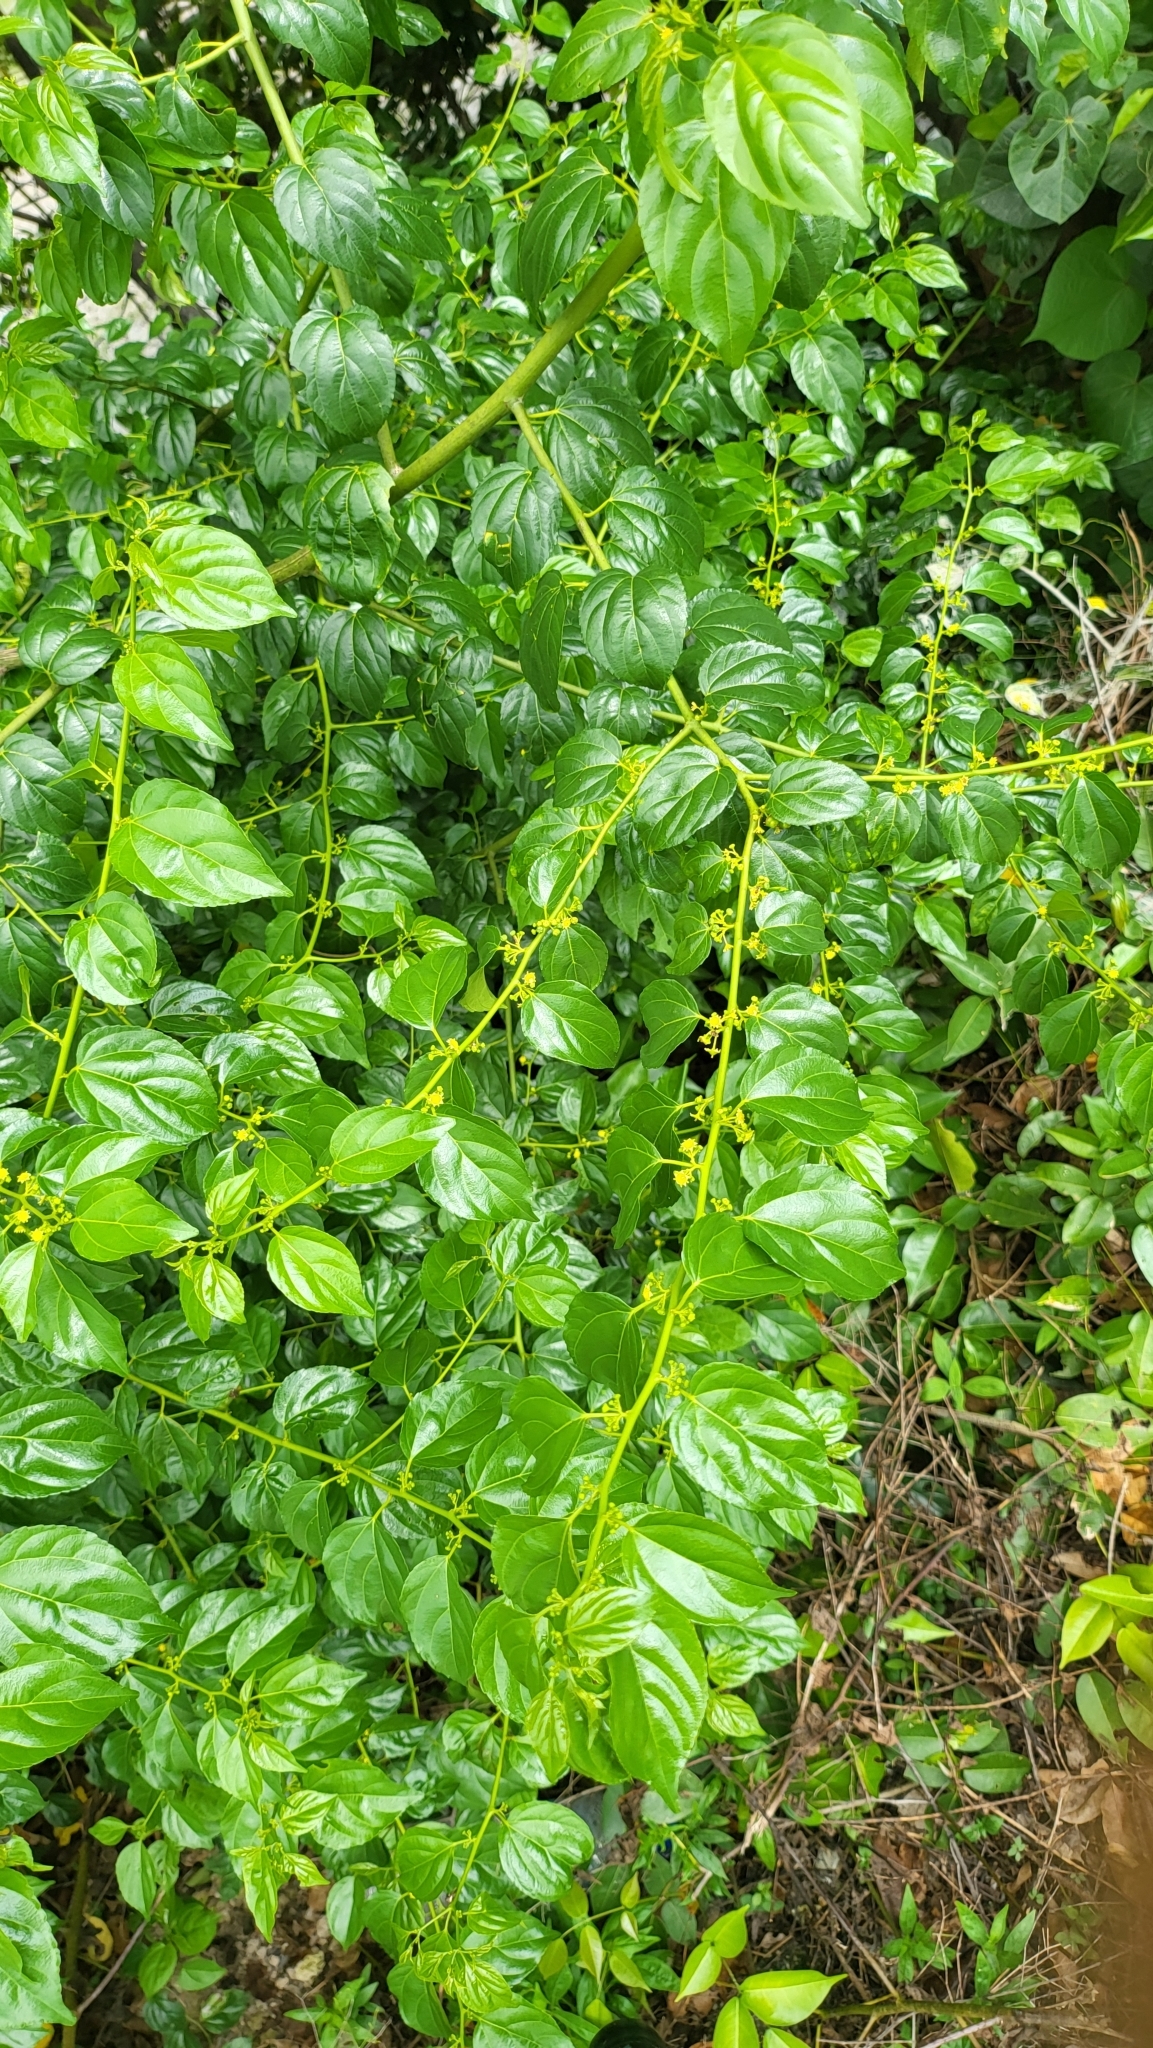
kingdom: Plantae
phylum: Tracheophyta
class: Magnoliopsida
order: Rosales
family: Rhamnaceae
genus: Colubrina
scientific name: Colubrina asiatica
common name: Asian nakedwood
